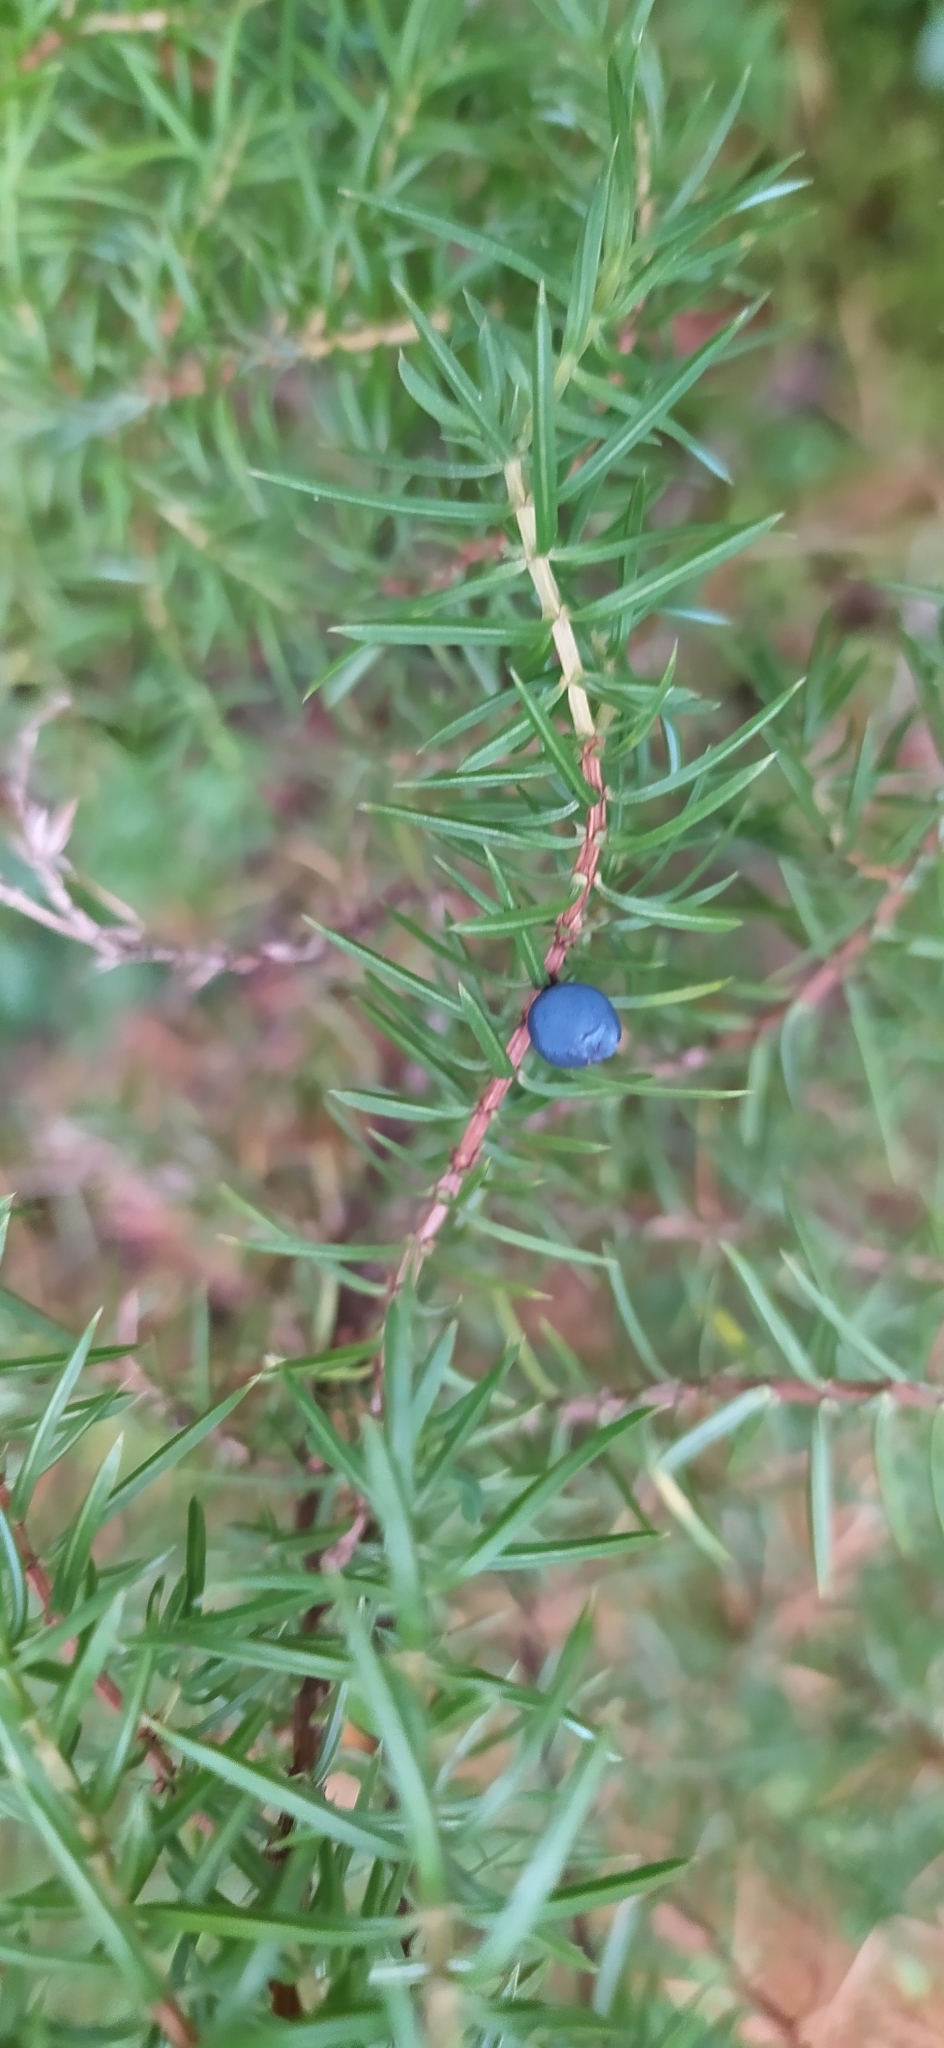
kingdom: Plantae
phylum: Tracheophyta
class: Pinopsida
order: Pinales
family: Cupressaceae
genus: Juniperus
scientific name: Juniperus communis
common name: Common juniper
